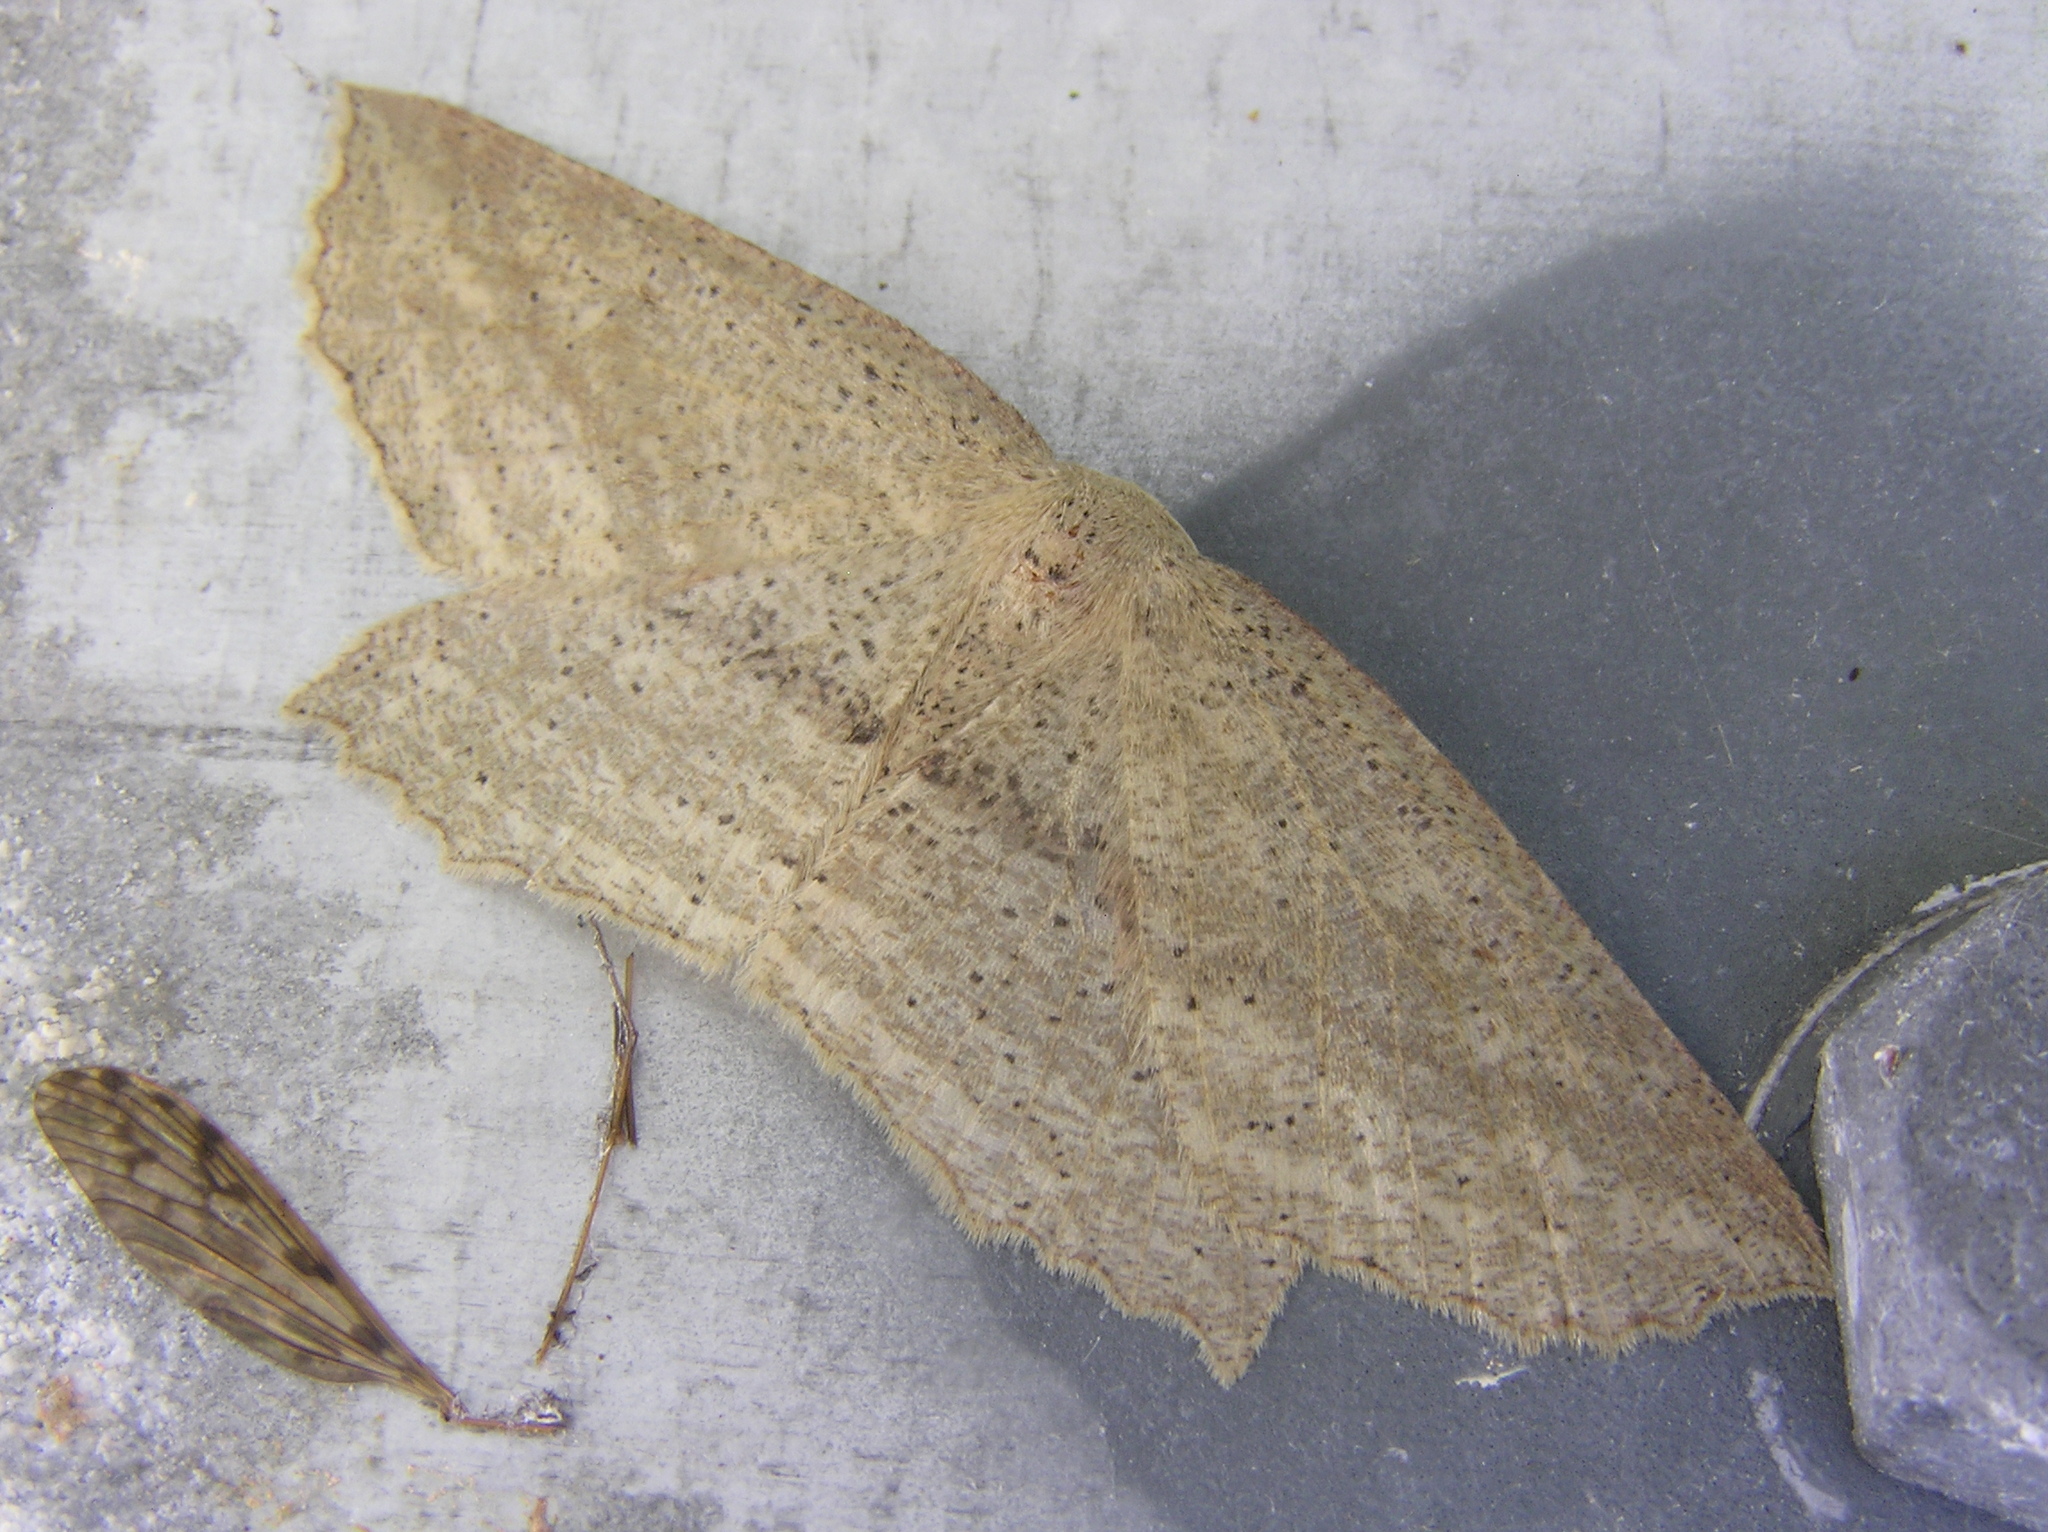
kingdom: Animalia
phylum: Arthropoda
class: Insecta
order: Lepidoptera
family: Geometridae
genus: Xyridacma
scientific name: Xyridacma veronicae
